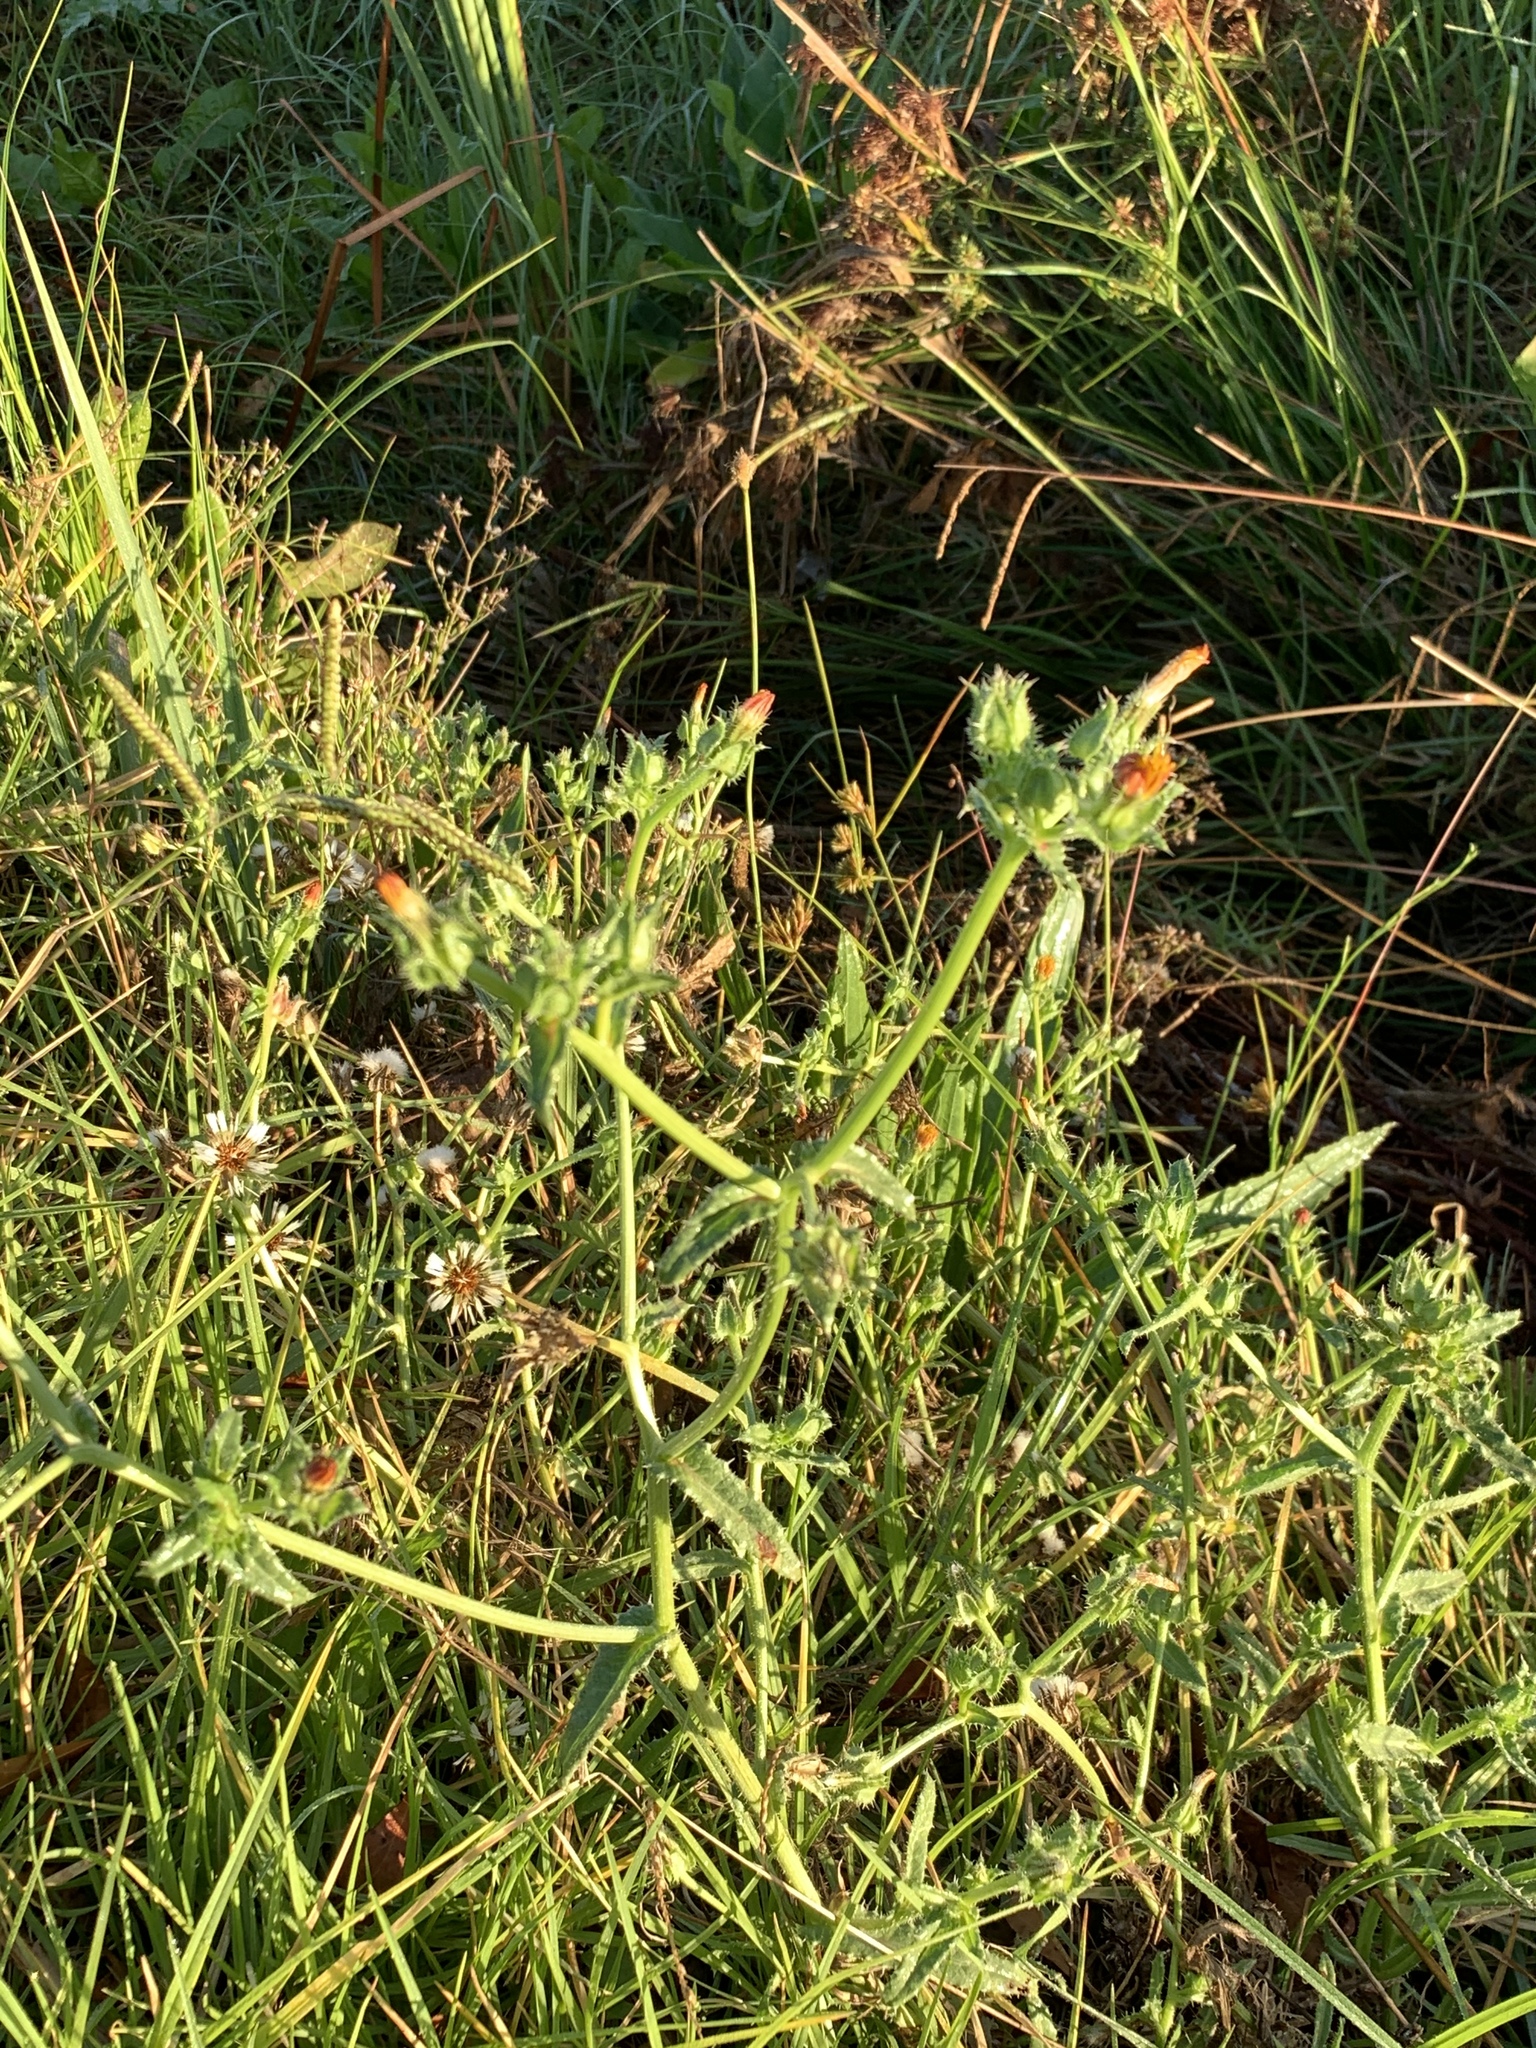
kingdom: Plantae
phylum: Tracheophyta
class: Magnoliopsida
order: Asterales
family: Asteraceae
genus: Helminthotheca
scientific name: Helminthotheca echioides
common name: Ox-tongue
